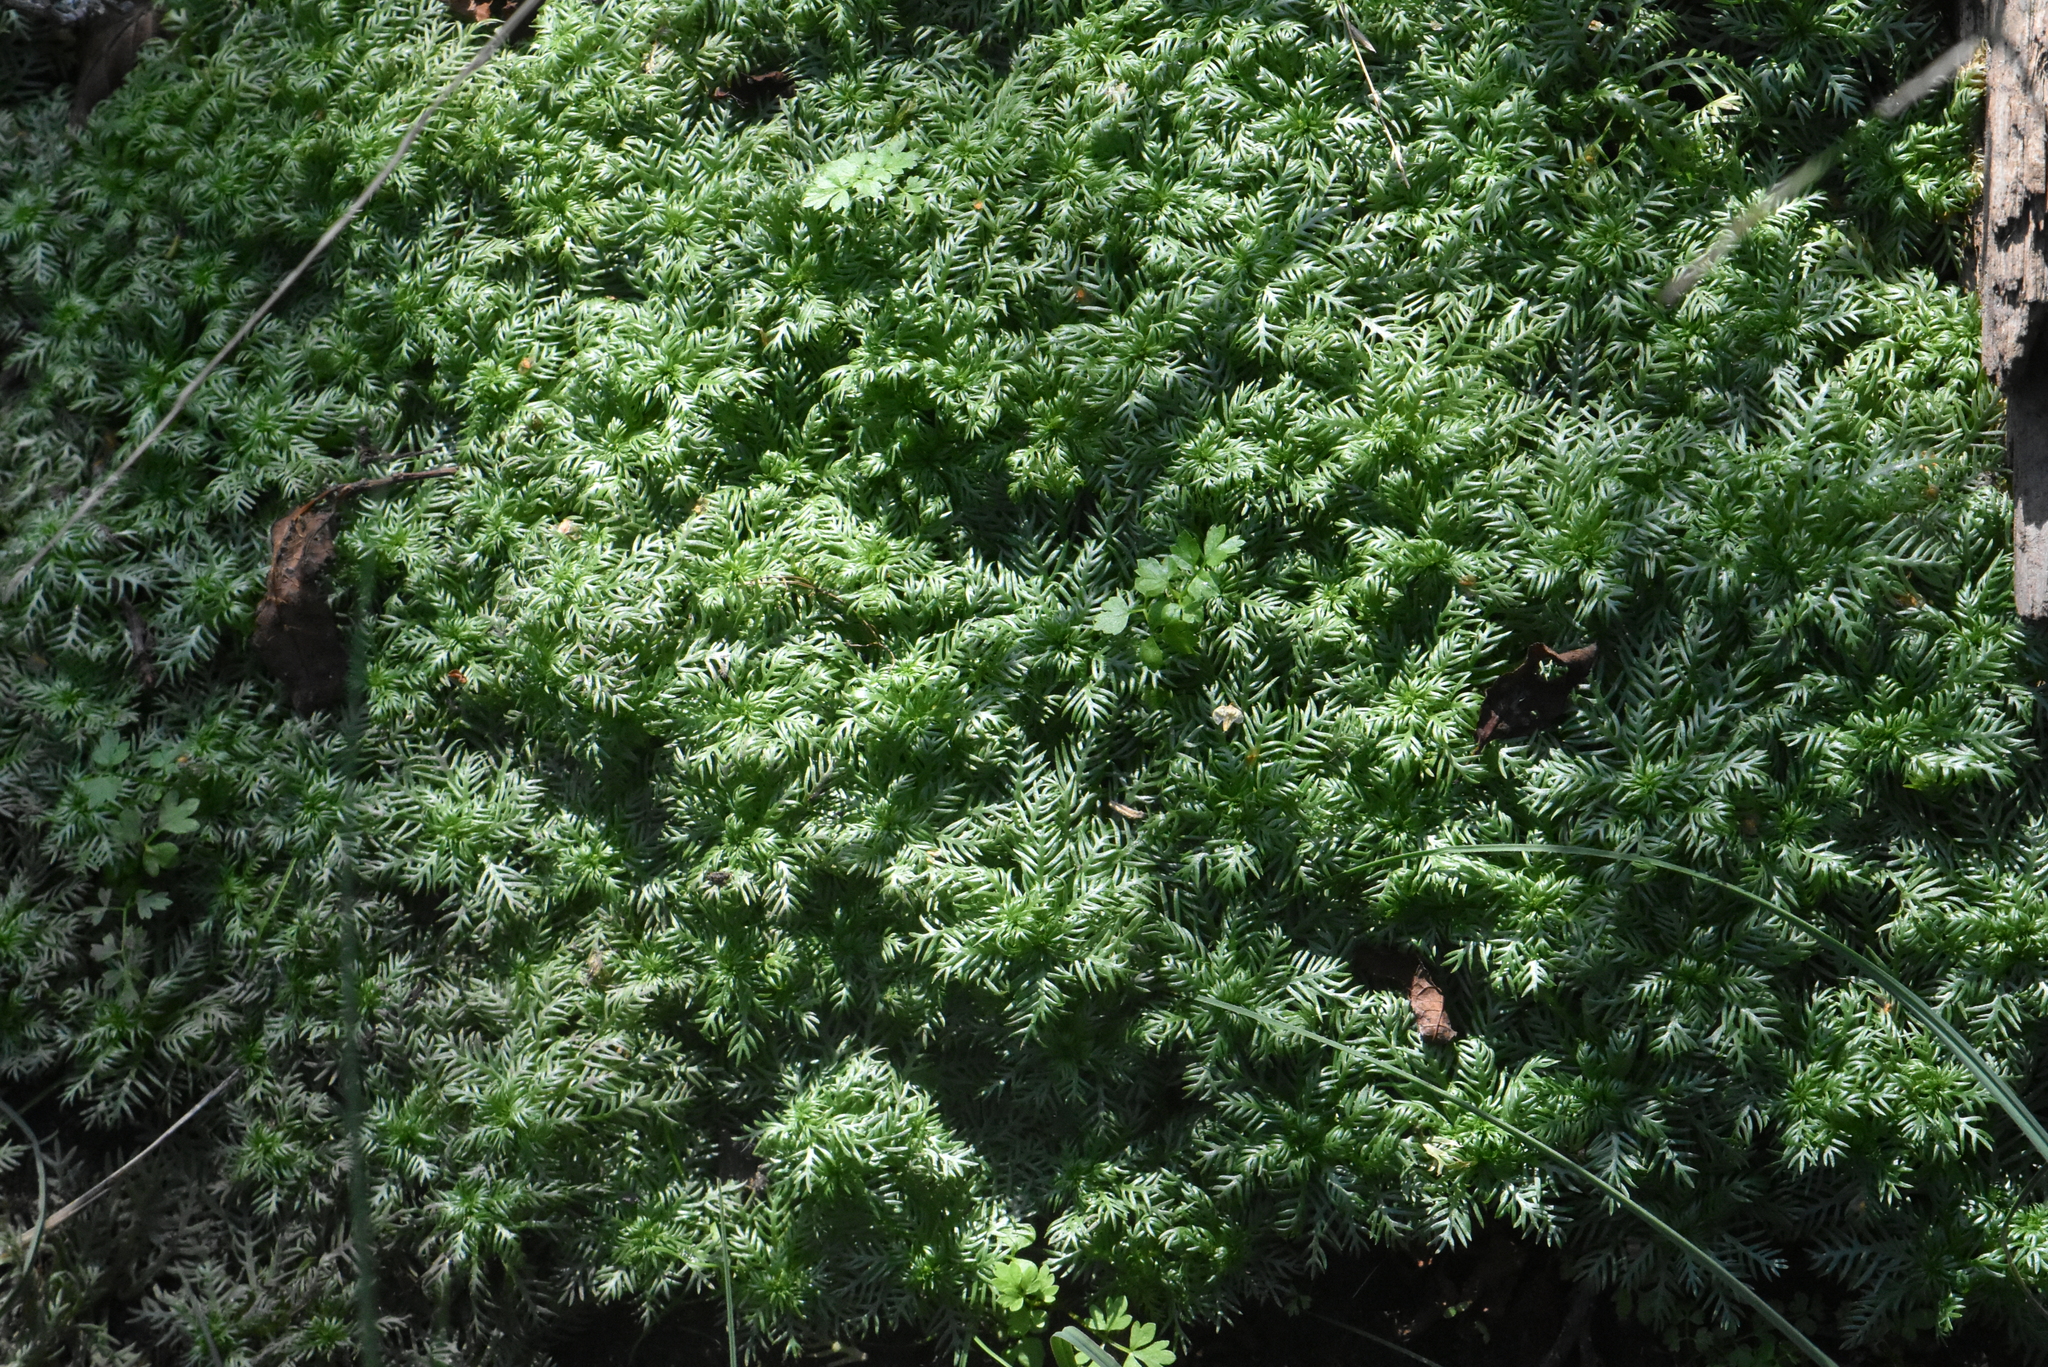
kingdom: Plantae
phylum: Tracheophyta
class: Magnoliopsida
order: Ericales
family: Primulaceae
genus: Hottonia
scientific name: Hottonia palustris
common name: Water-violet
